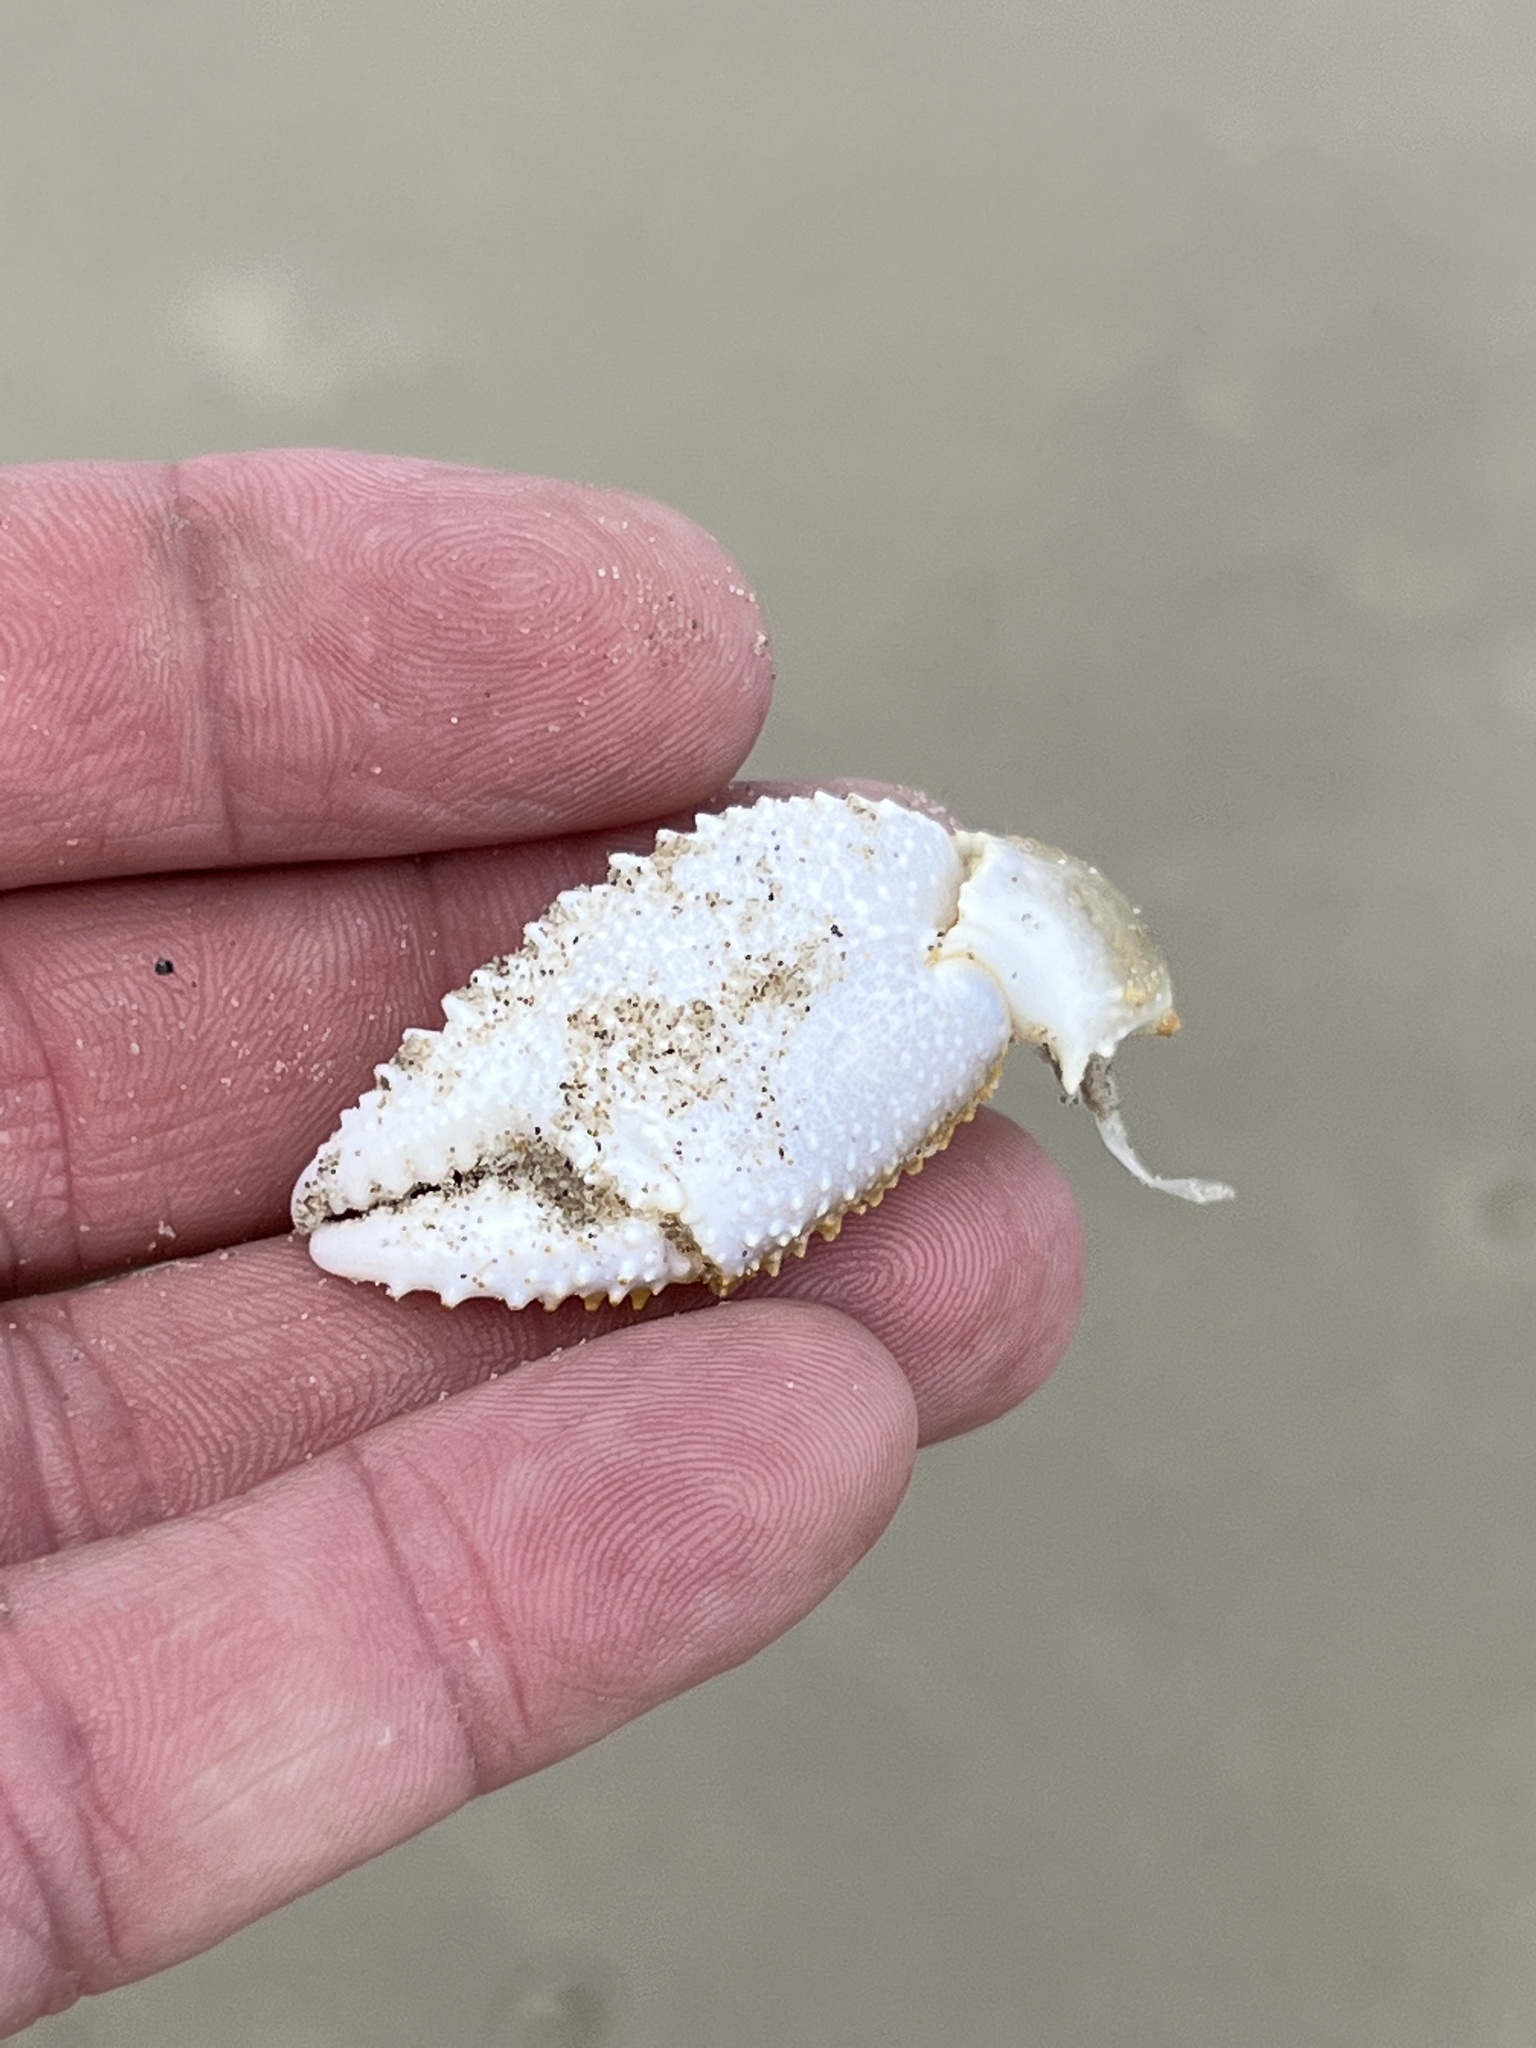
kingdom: Animalia
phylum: Arthropoda
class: Malacostraca
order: Decapoda
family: Ocypodidae
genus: Ocypode
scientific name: Ocypode quadrata
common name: Ghost crab
